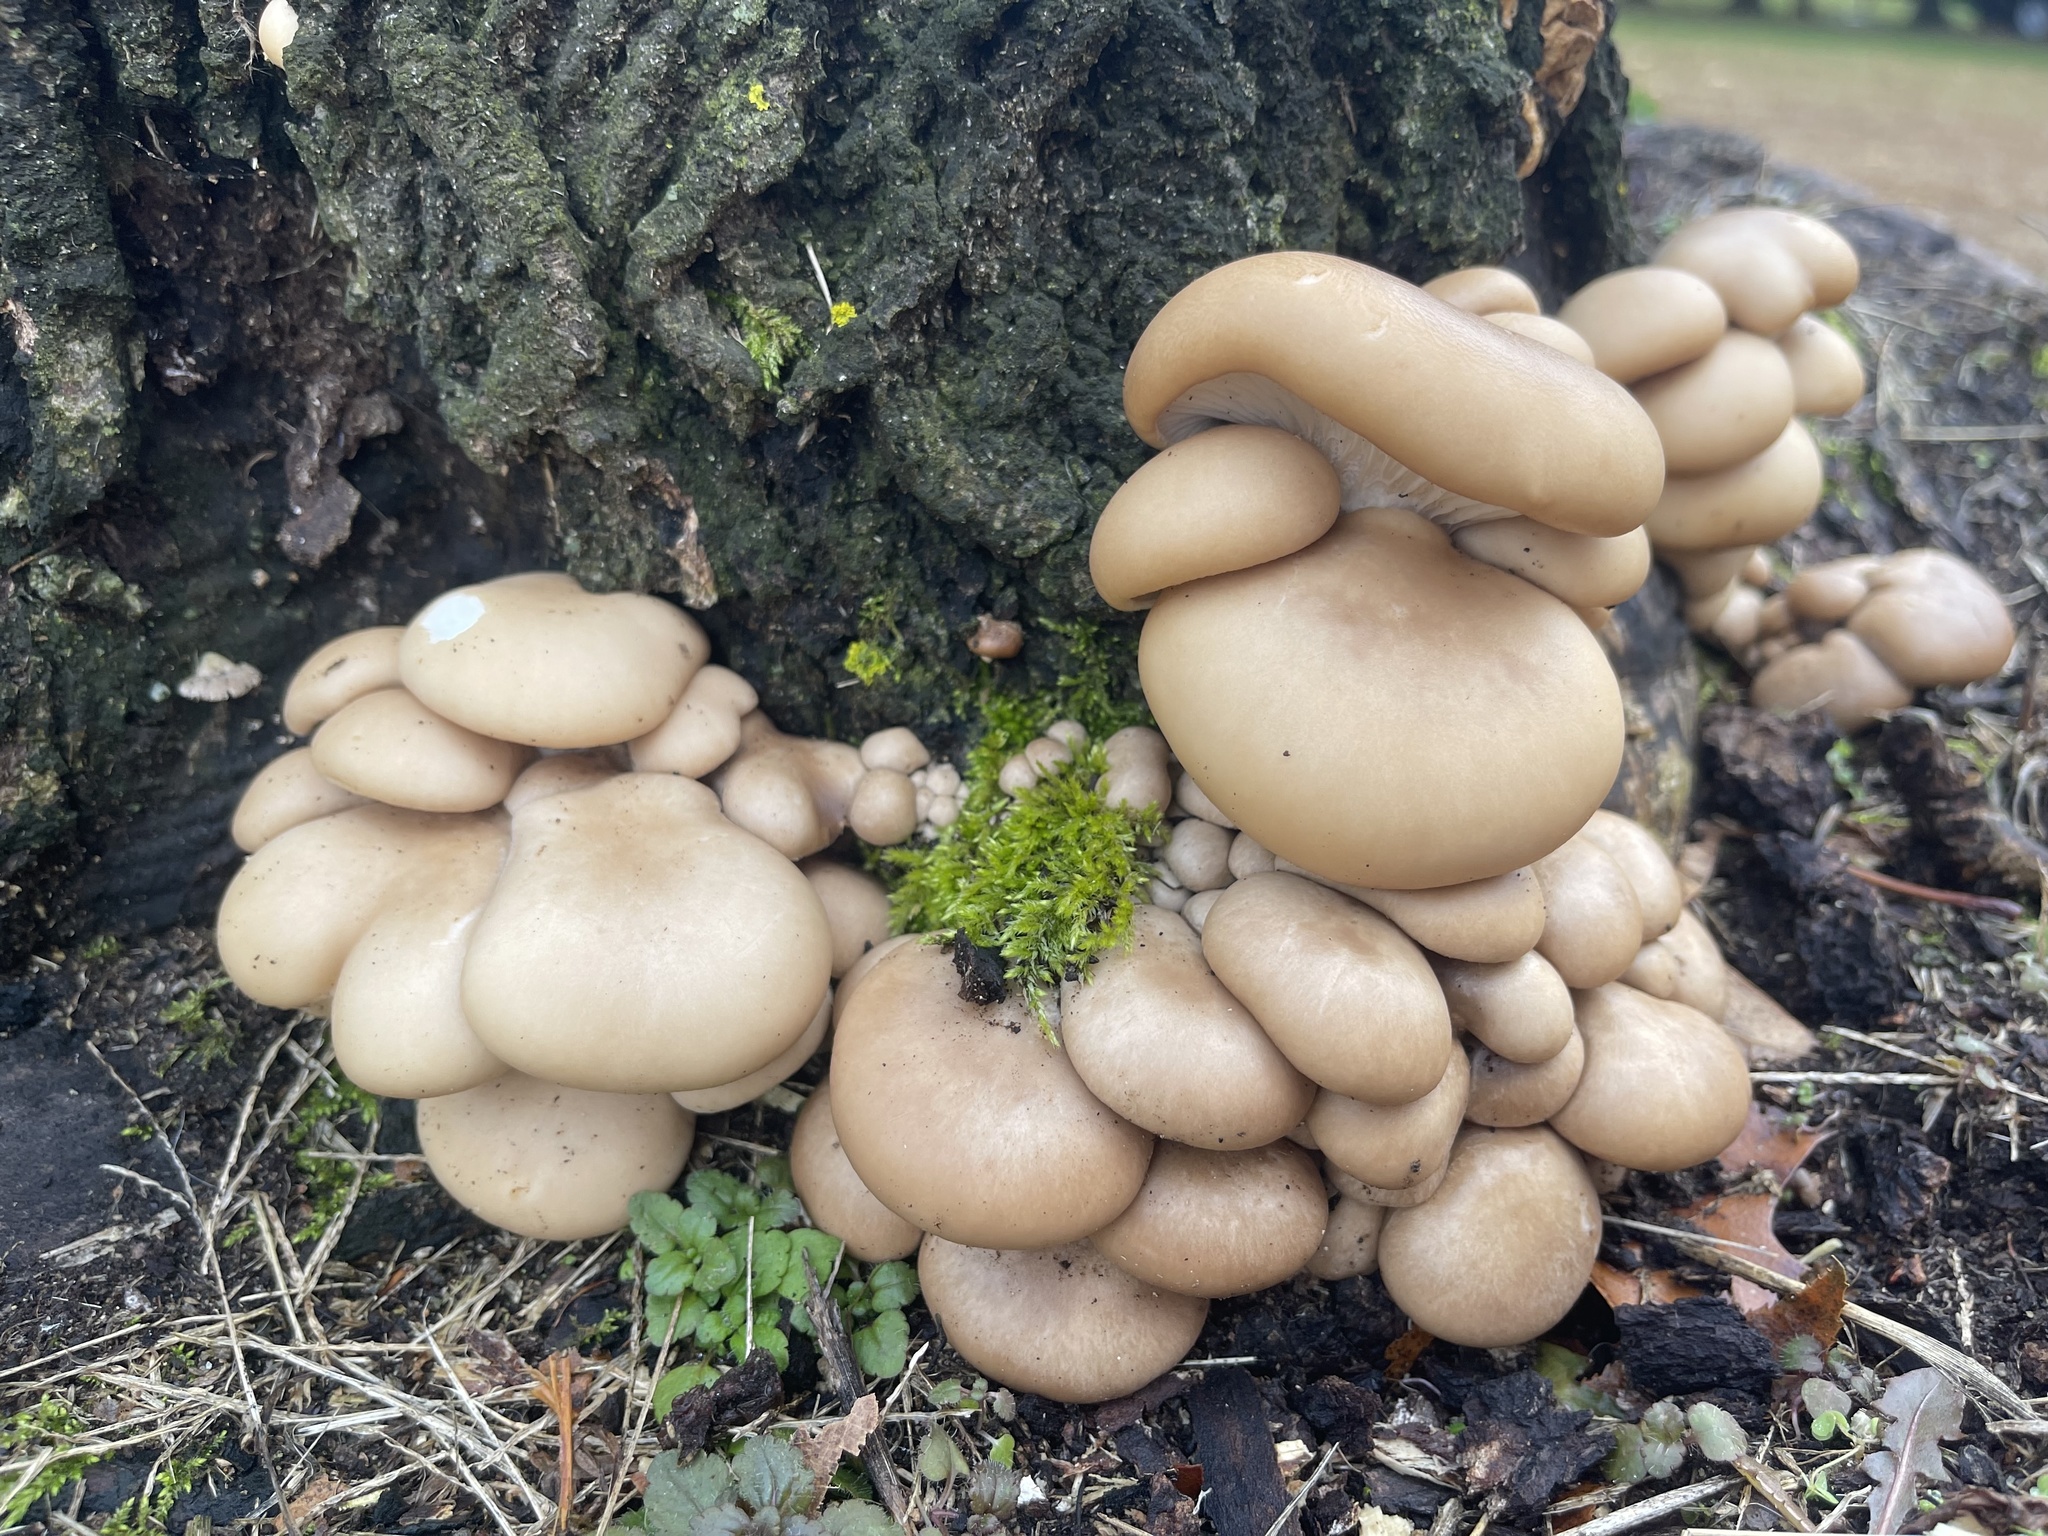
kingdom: Fungi
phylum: Basidiomycota
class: Agaricomycetes
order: Agaricales
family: Pleurotaceae
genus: Pleurotus
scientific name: Pleurotus ostreatus
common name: Oyster mushroom
